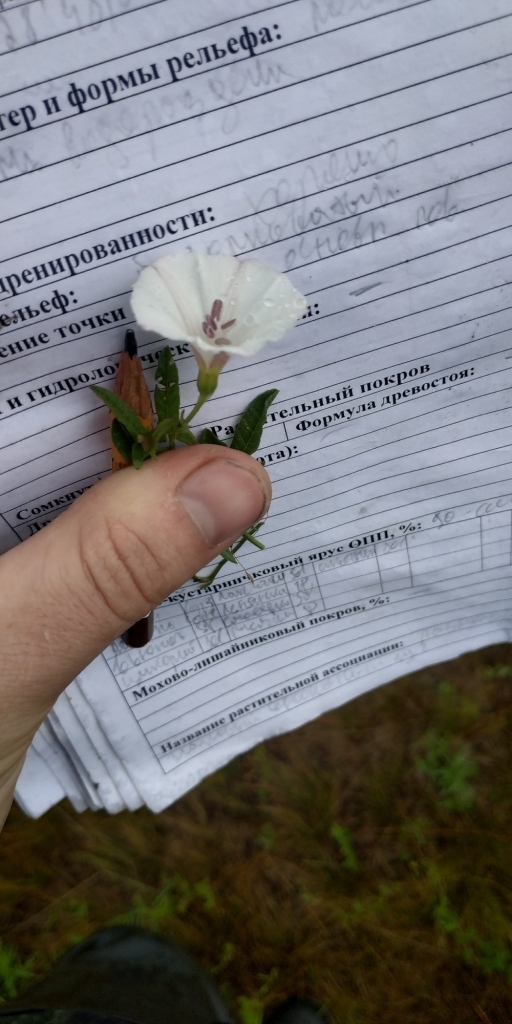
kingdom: Plantae
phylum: Tracheophyta
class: Magnoliopsida
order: Solanales
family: Convolvulaceae
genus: Convolvulus
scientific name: Convolvulus arvensis
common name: Field bindweed
